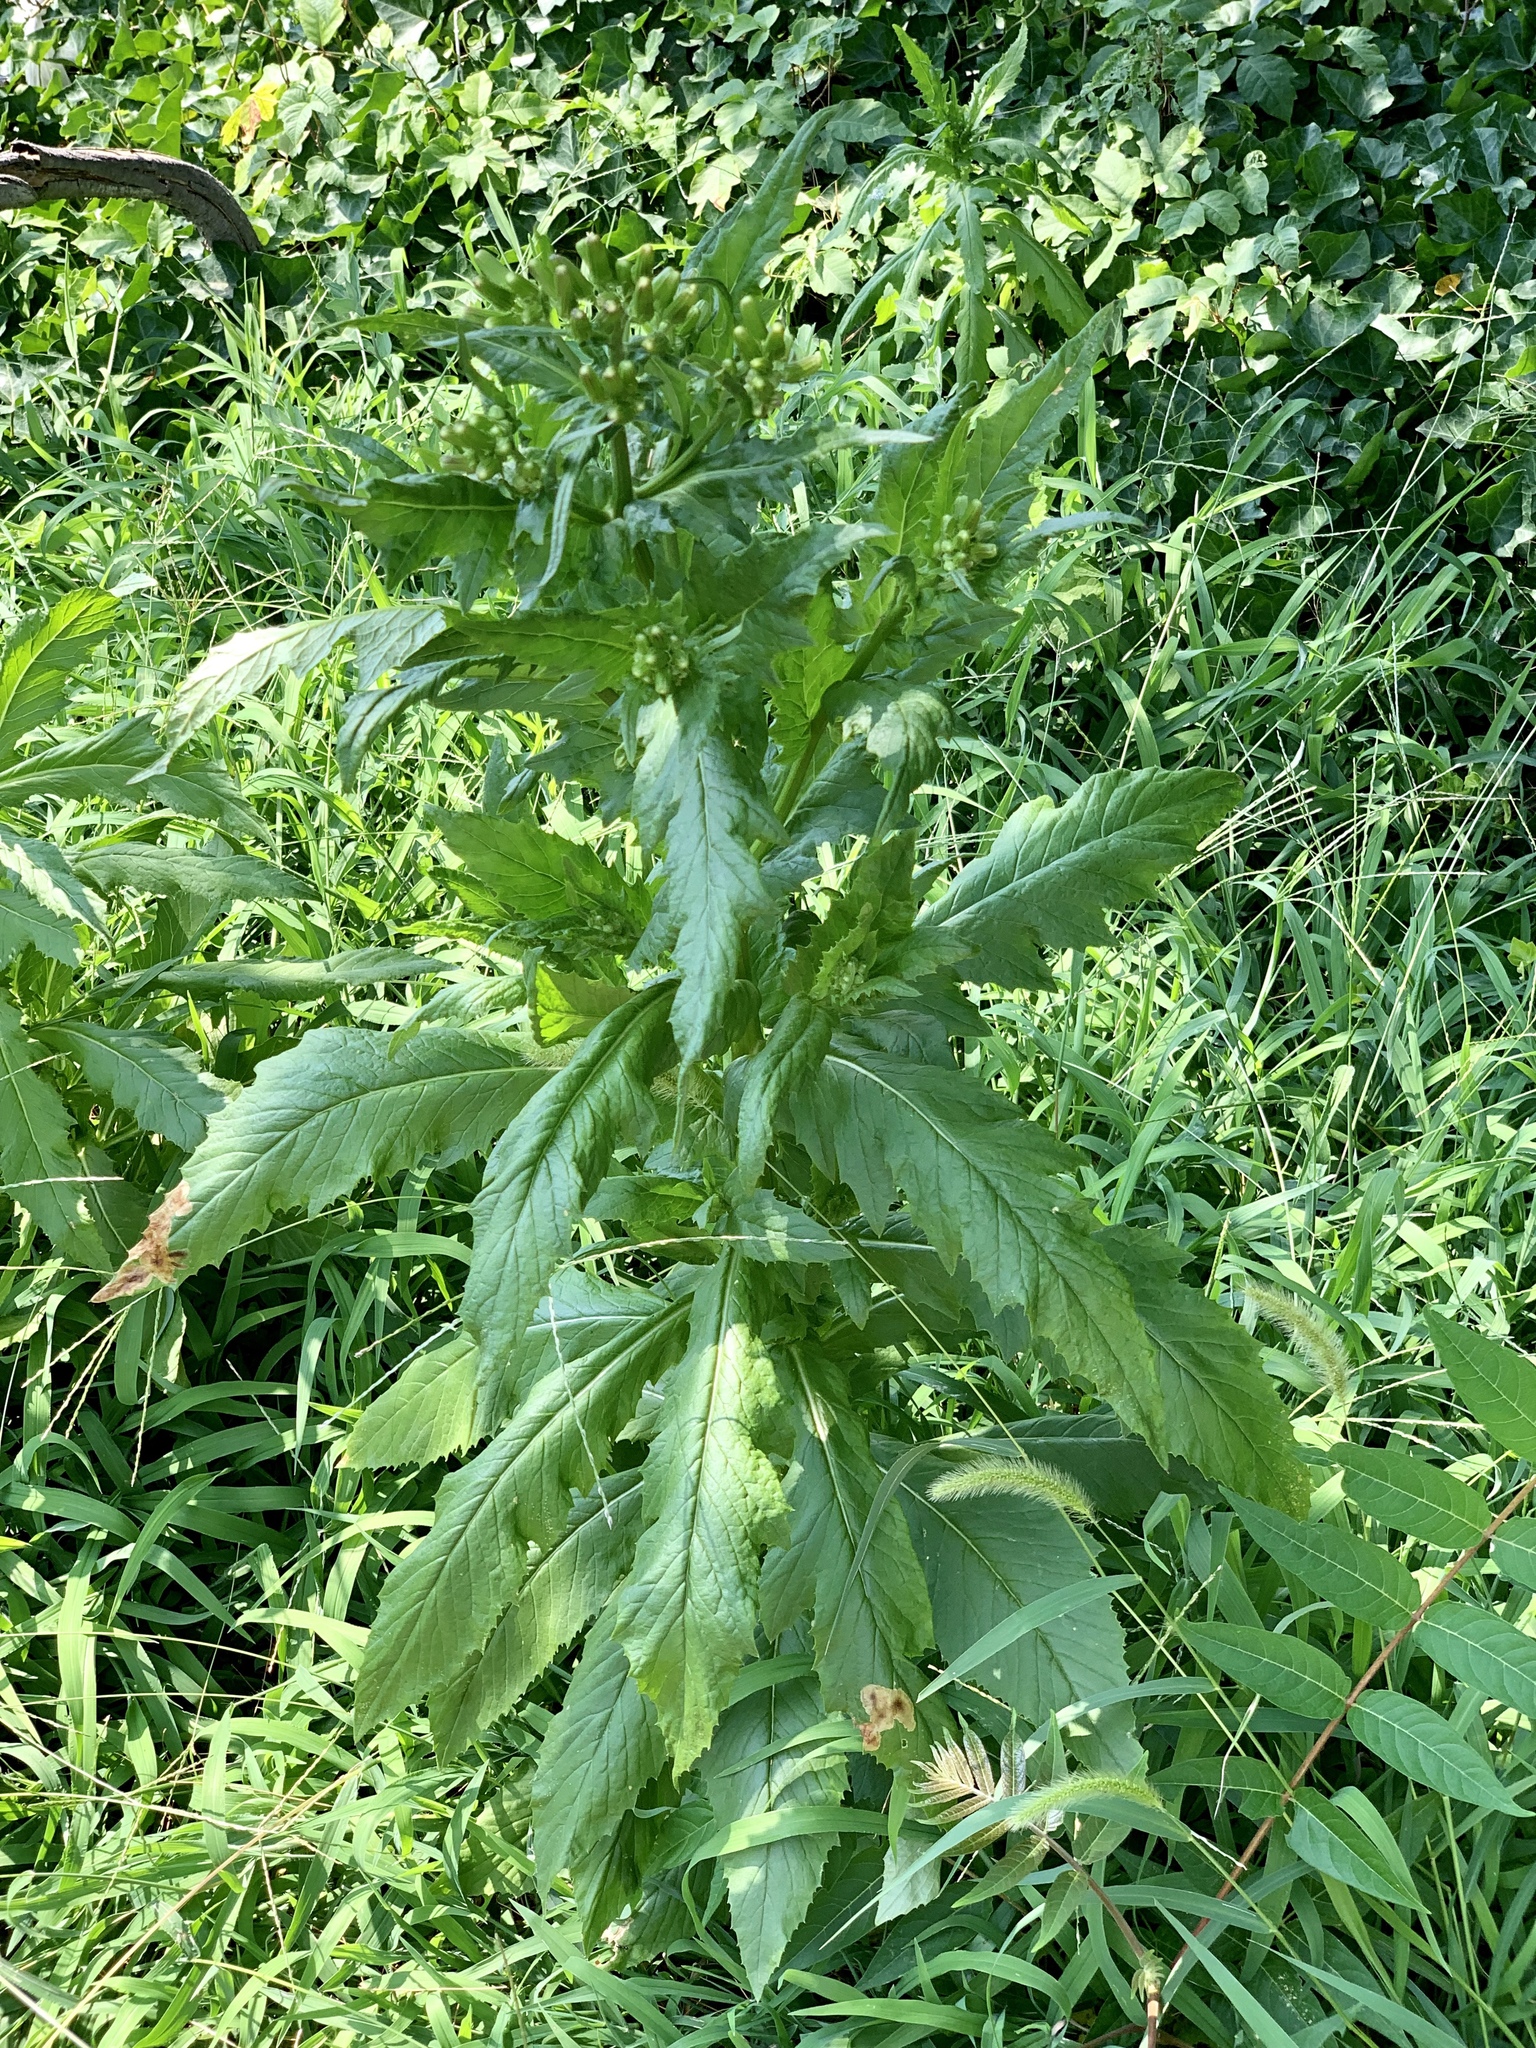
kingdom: Plantae
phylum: Tracheophyta
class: Magnoliopsida
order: Asterales
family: Asteraceae
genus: Erechtites
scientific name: Erechtites hieraciifolius
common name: American burnweed
